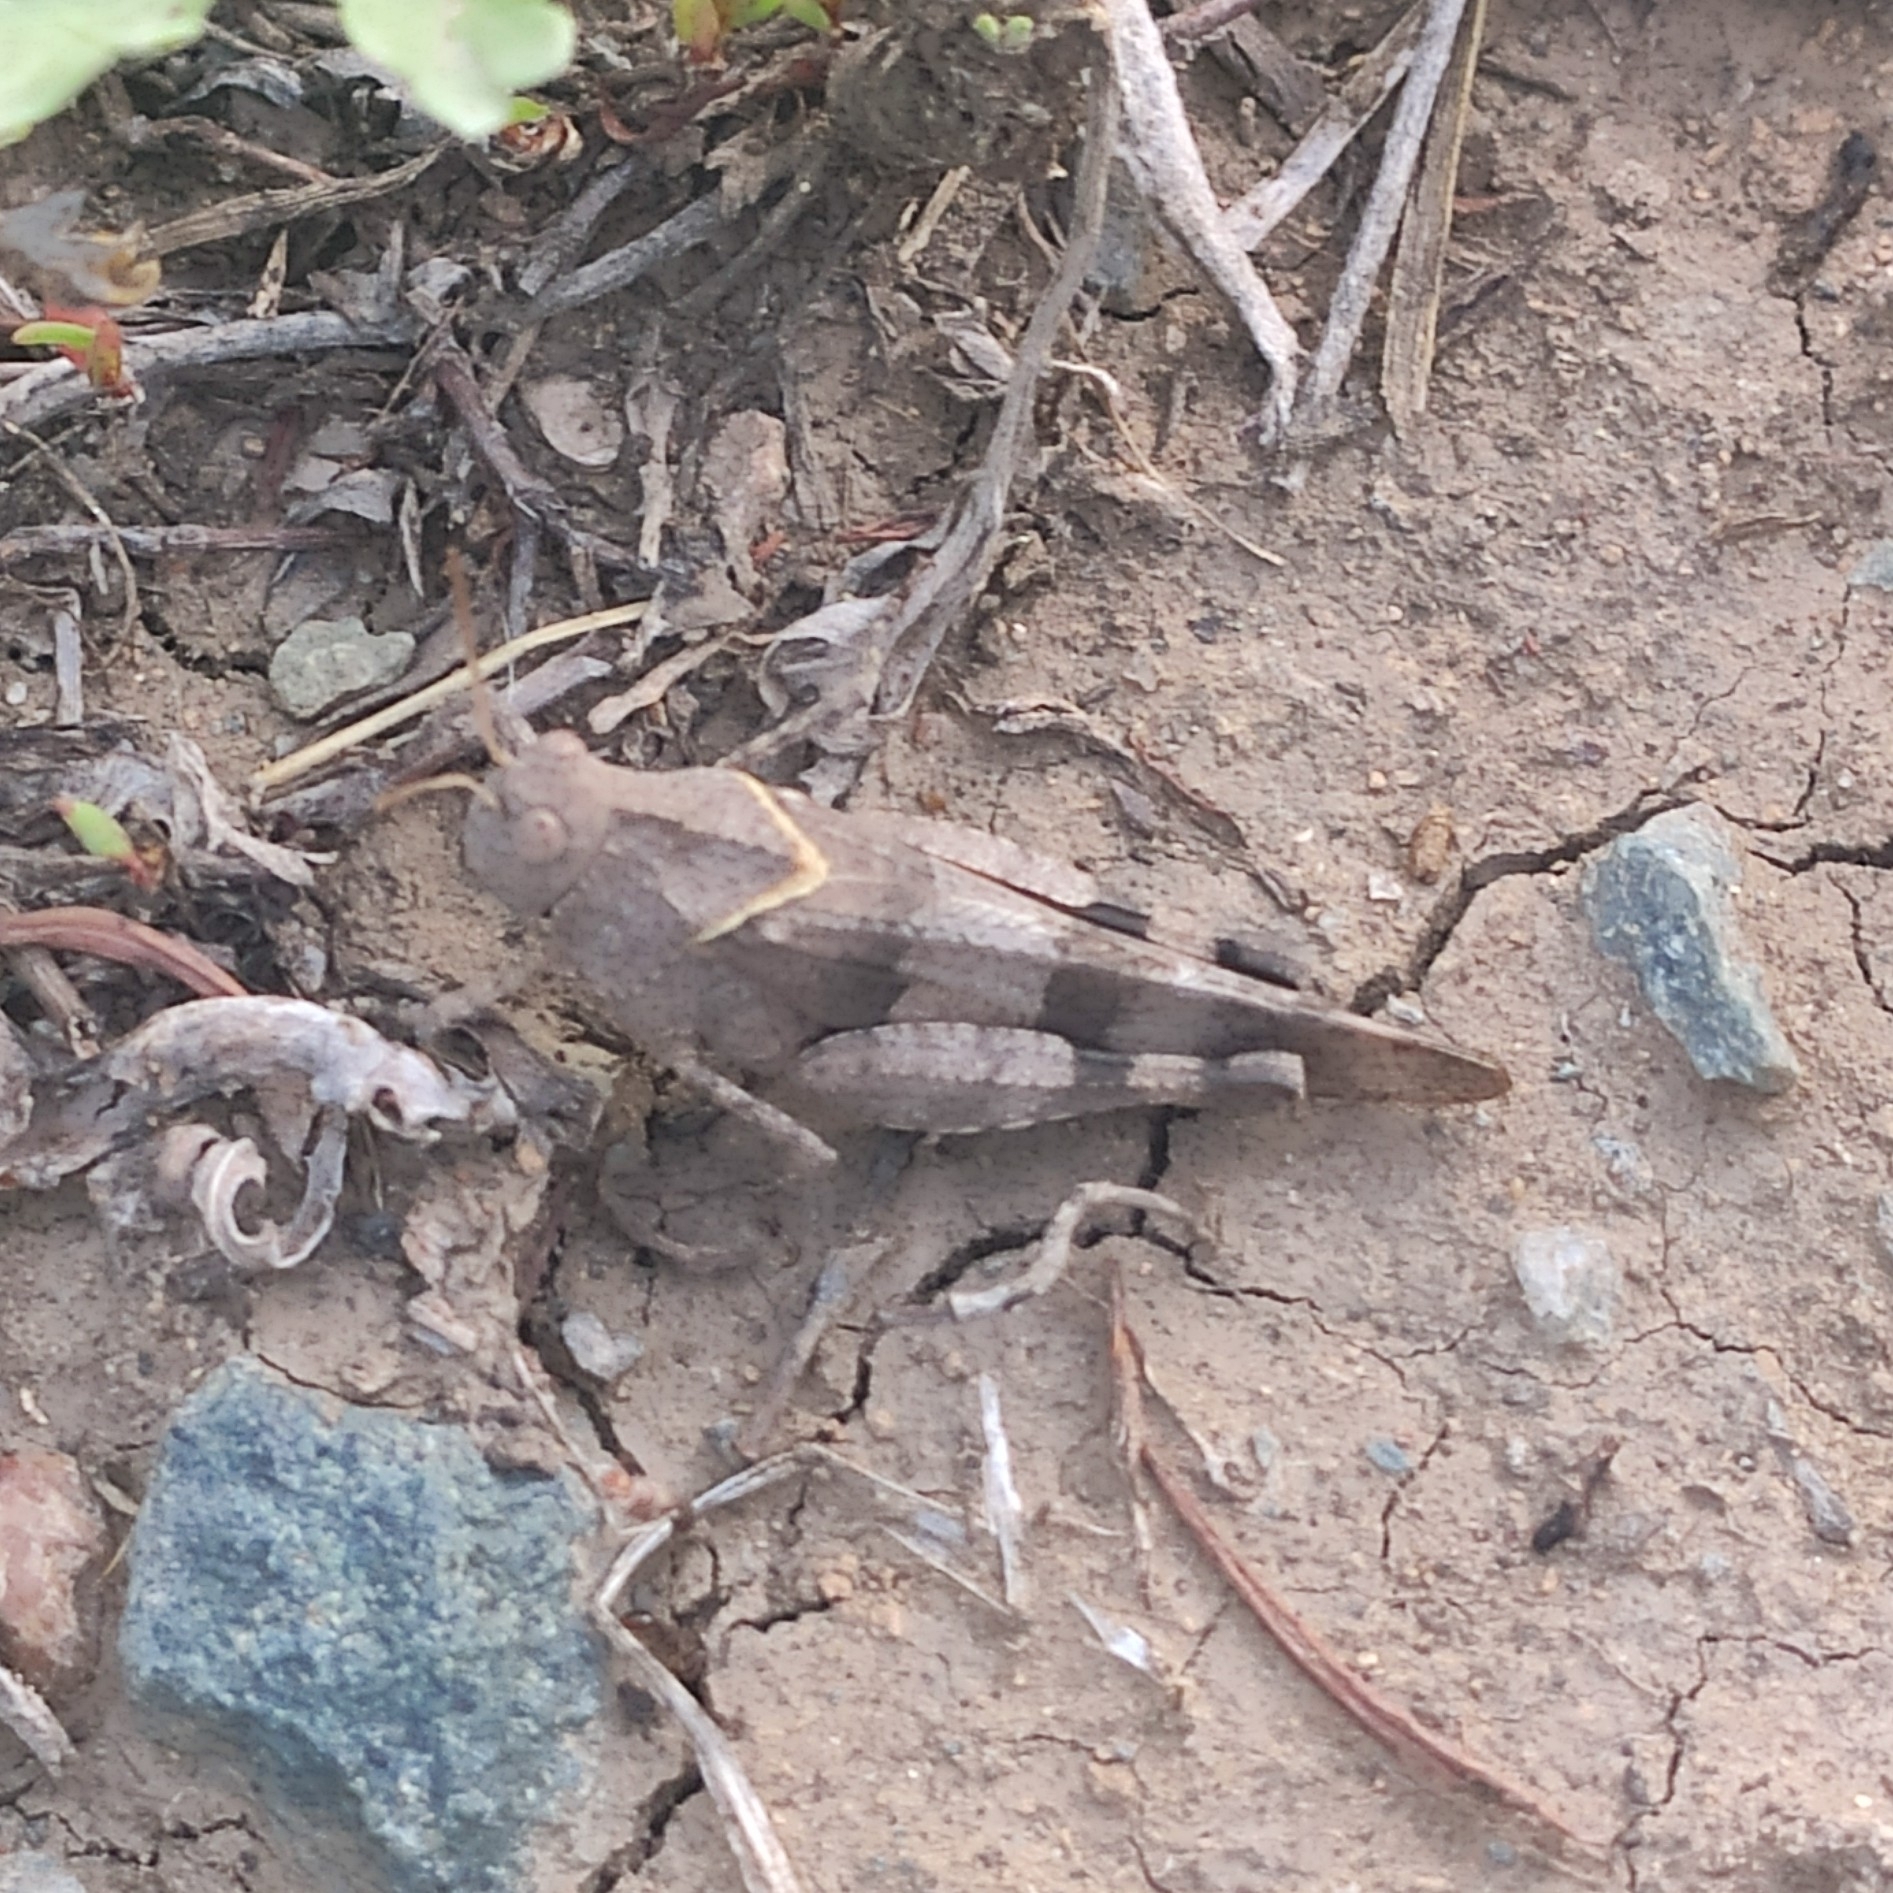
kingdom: Animalia
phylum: Arthropoda
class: Insecta
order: Orthoptera
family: Acrididae
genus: Oedipoda
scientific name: Oedipoda caerulescens
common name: Blue-winged grasshopper
